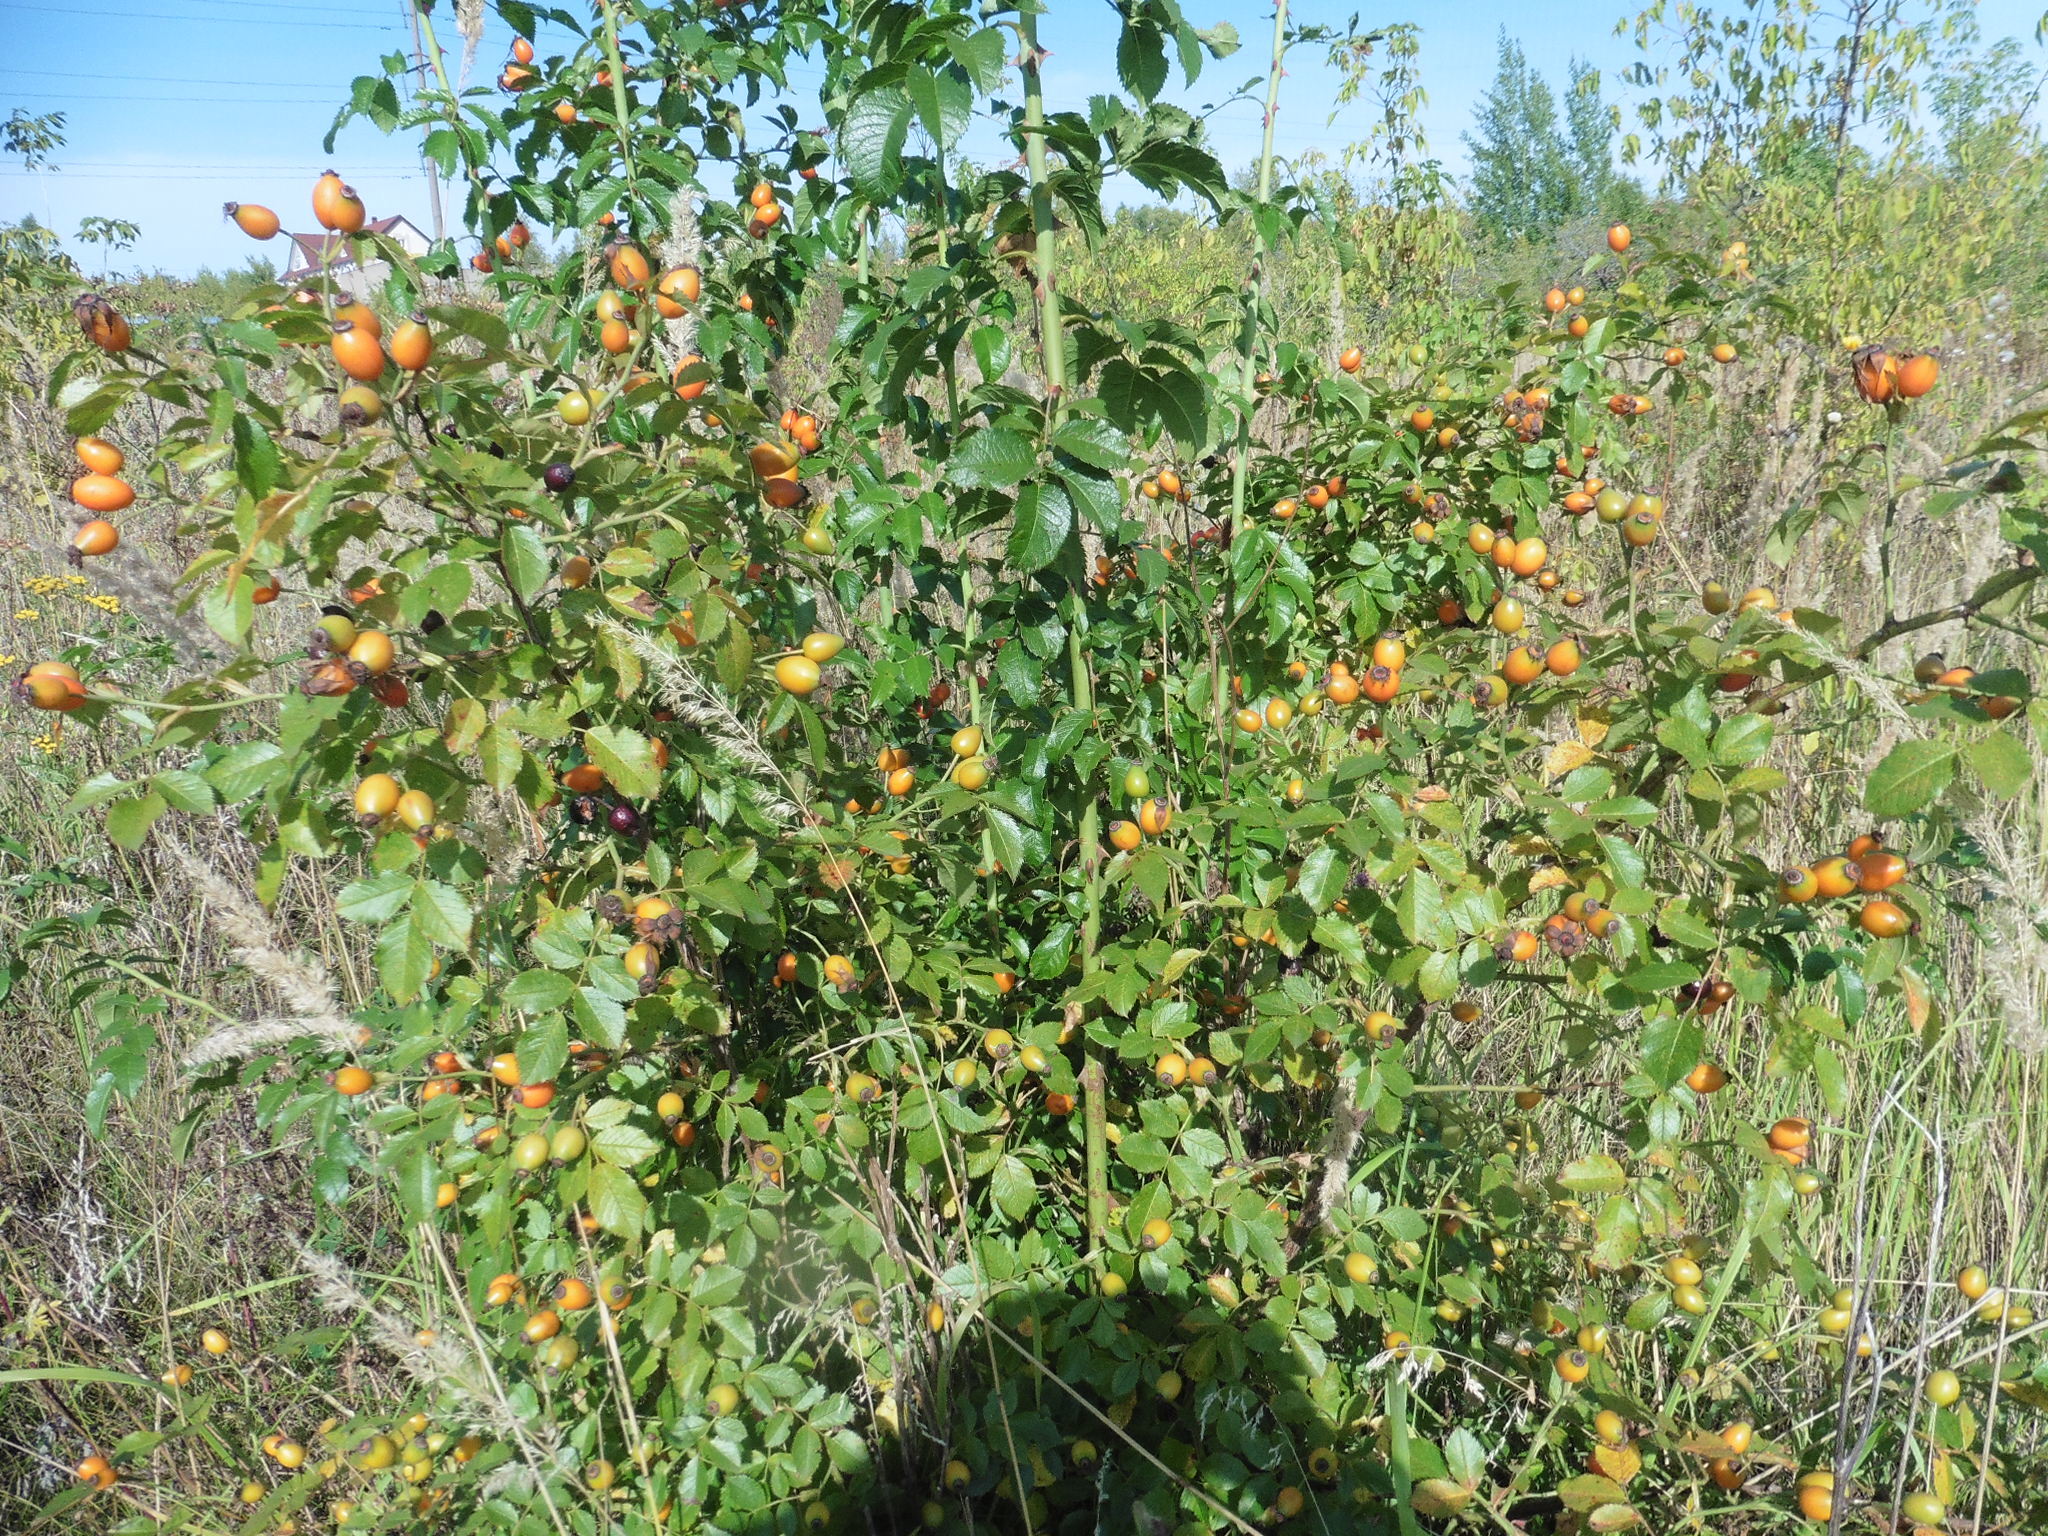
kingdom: Plantae
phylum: Tracheophyta
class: Magnoliopsida
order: Rosales
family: Rosaceae
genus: Rosa
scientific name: Rosa
